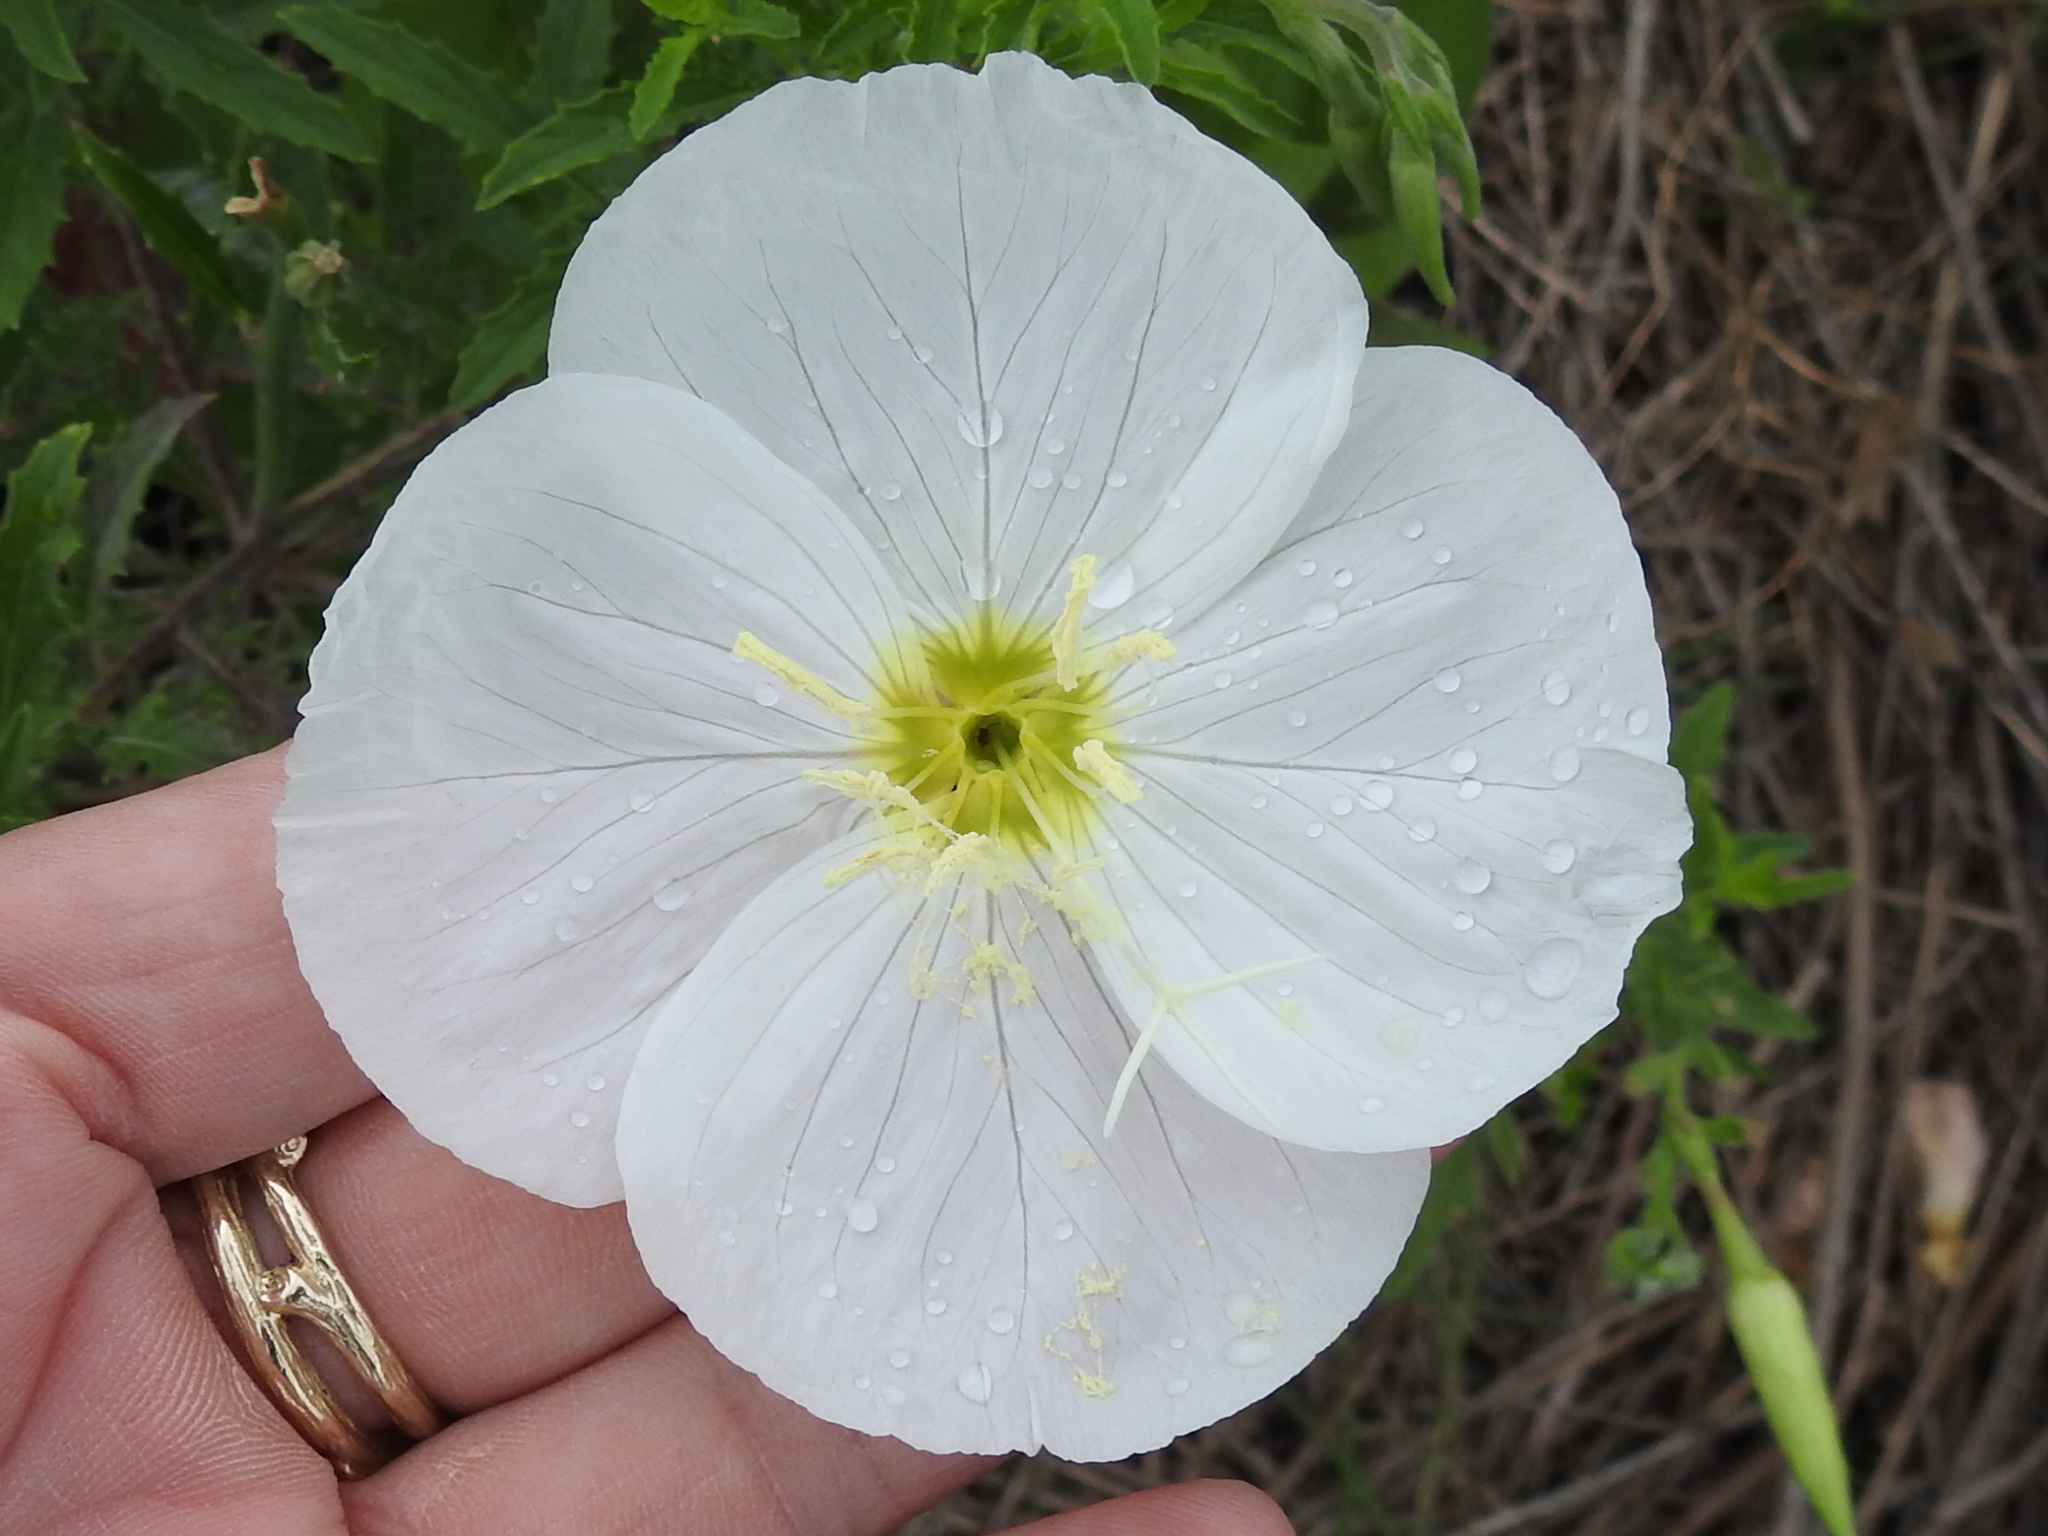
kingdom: Plantae
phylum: Tracheophyta
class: Magnoliopsida
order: Myrtales
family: Onagraceae
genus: Oenothera
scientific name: Oenothera speciosa
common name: White evening-primrose
